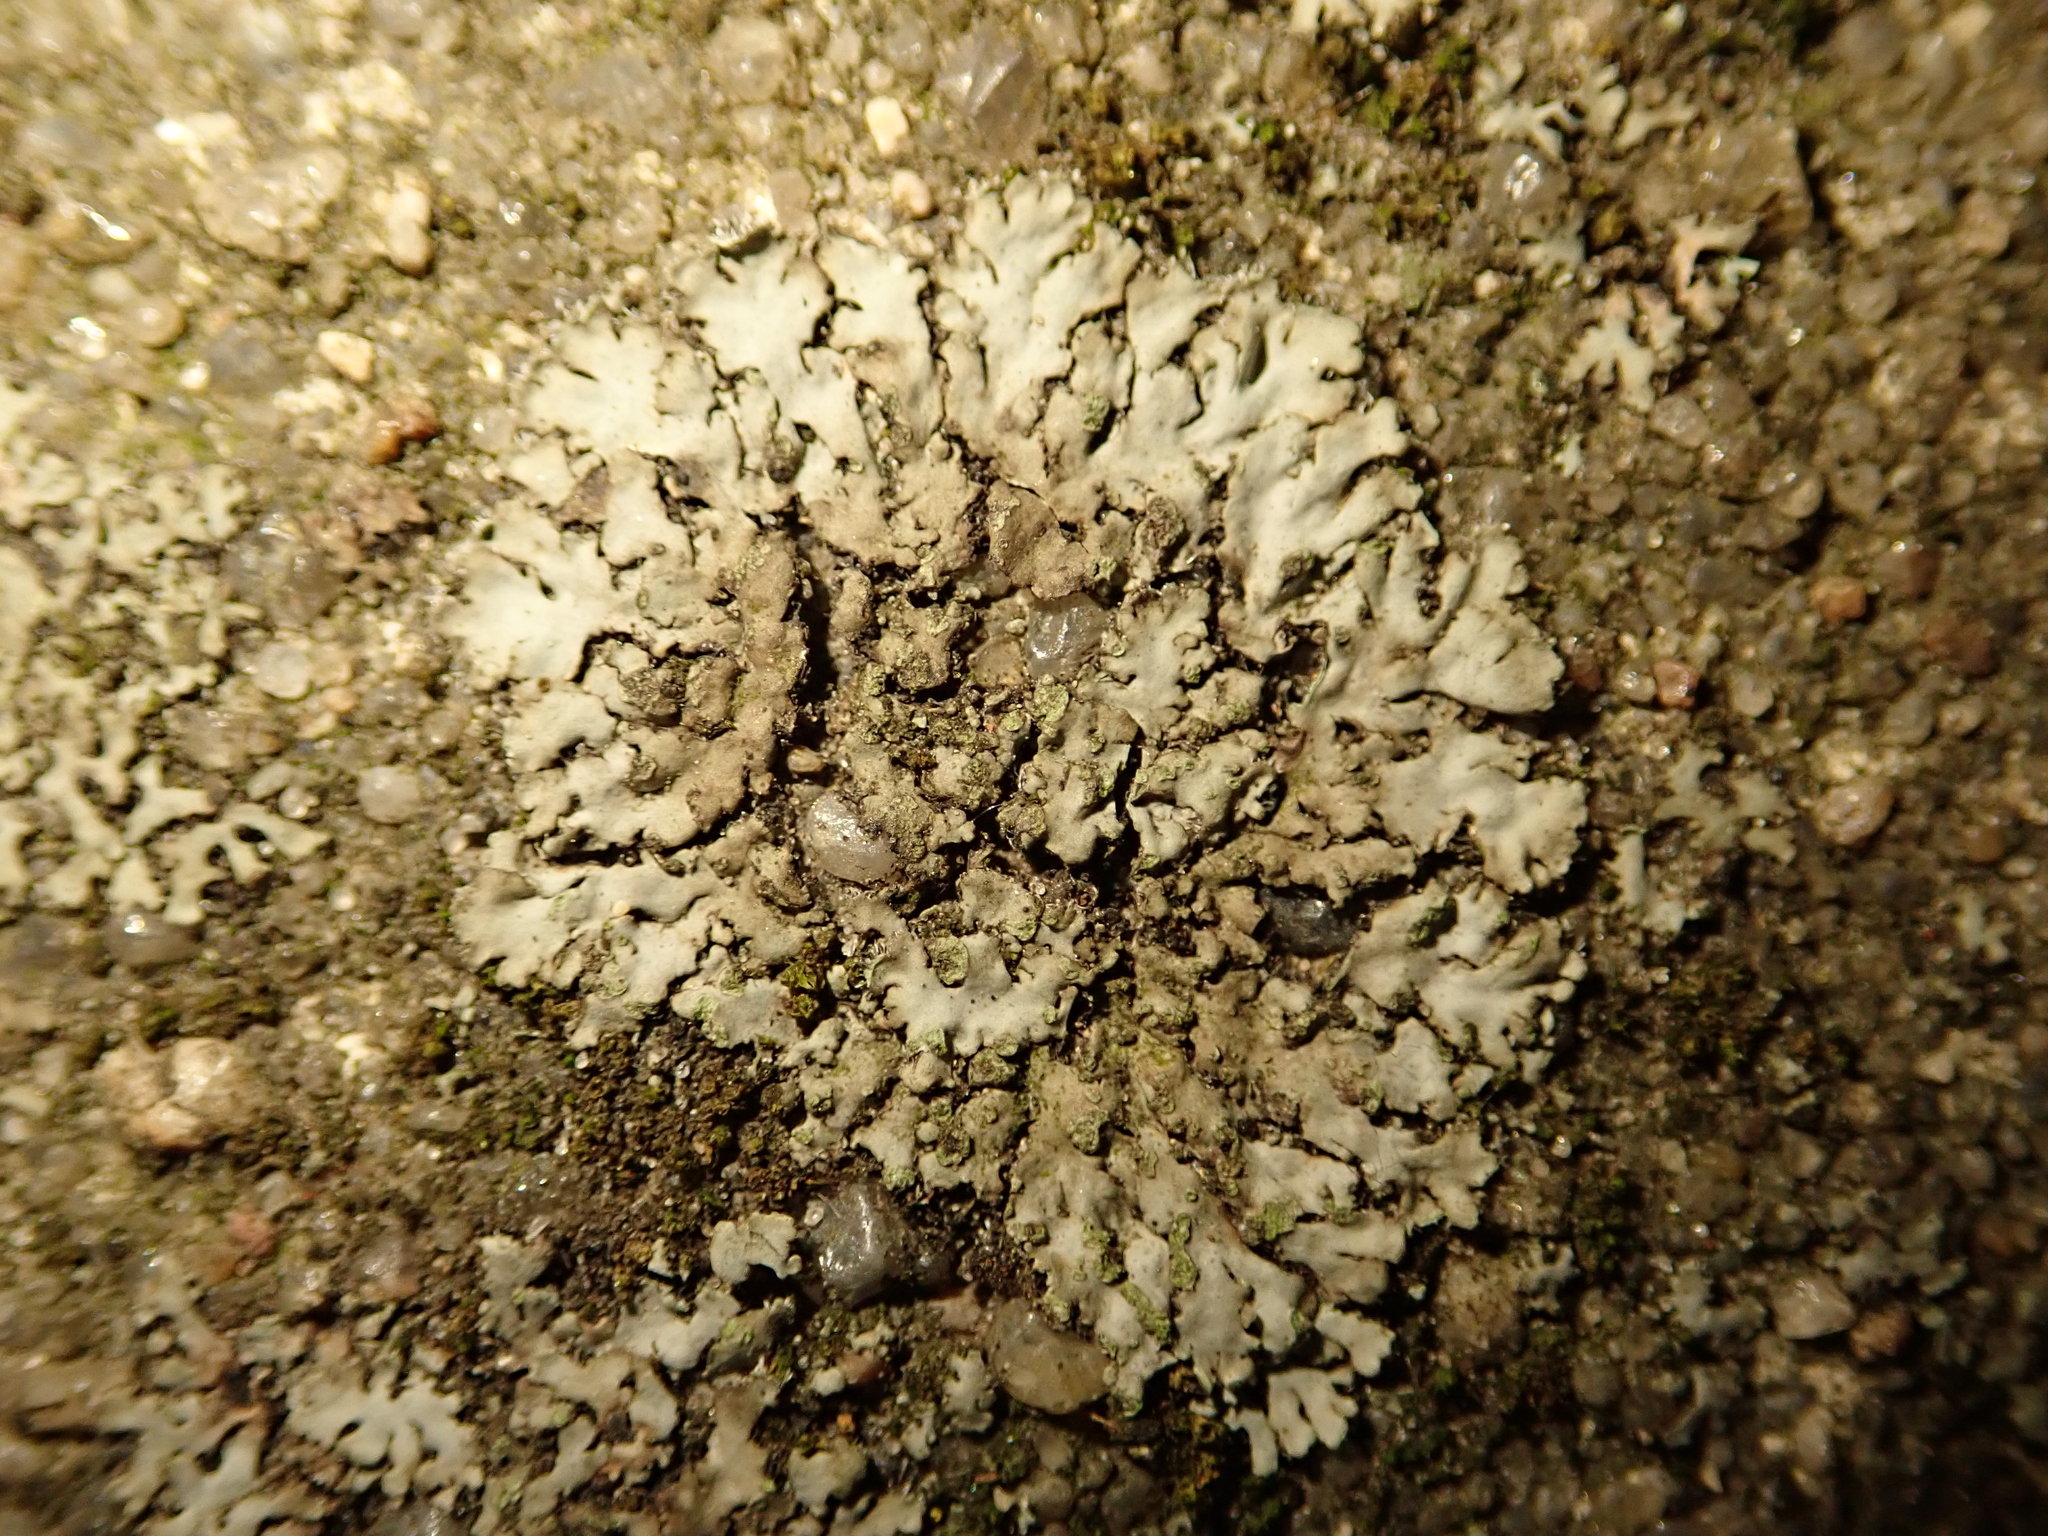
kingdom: Fungi
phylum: Ascomycota
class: Lecanoromycetes
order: Caliciales
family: Physciaceae
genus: Phaeophyscia
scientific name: Phaeophyscia orbicularis
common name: Mealy shadow lichen
